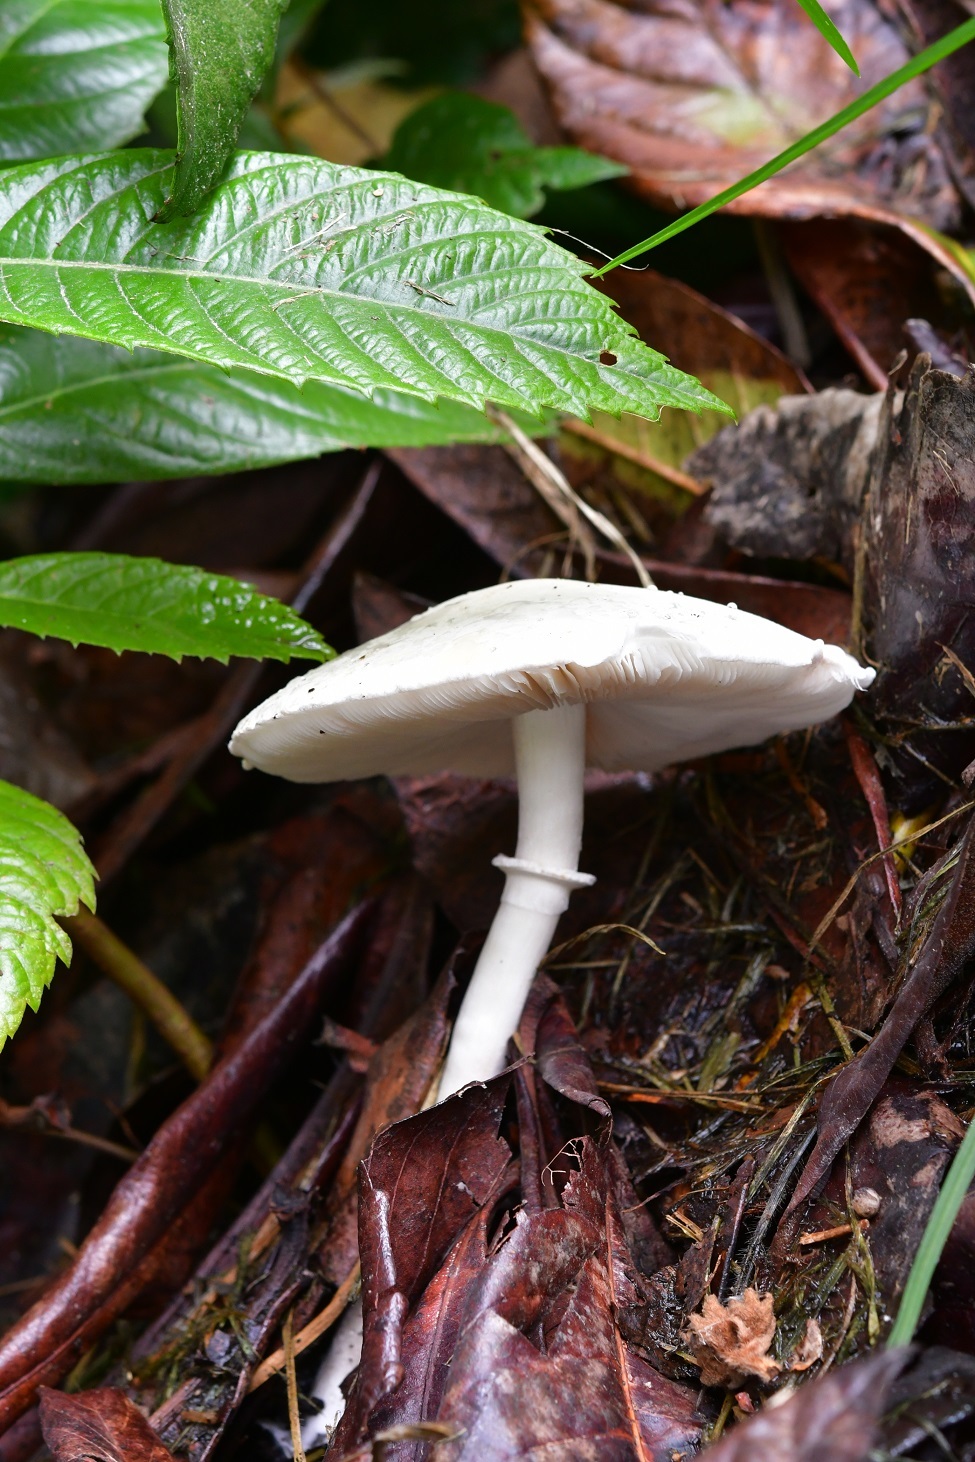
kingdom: Fungi
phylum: Basidiomycota
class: Agaricomycetes
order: Agaricales
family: Agaricaceae
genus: Leucoagaricus
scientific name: Leucoagaricus leucothites
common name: White dapperling
